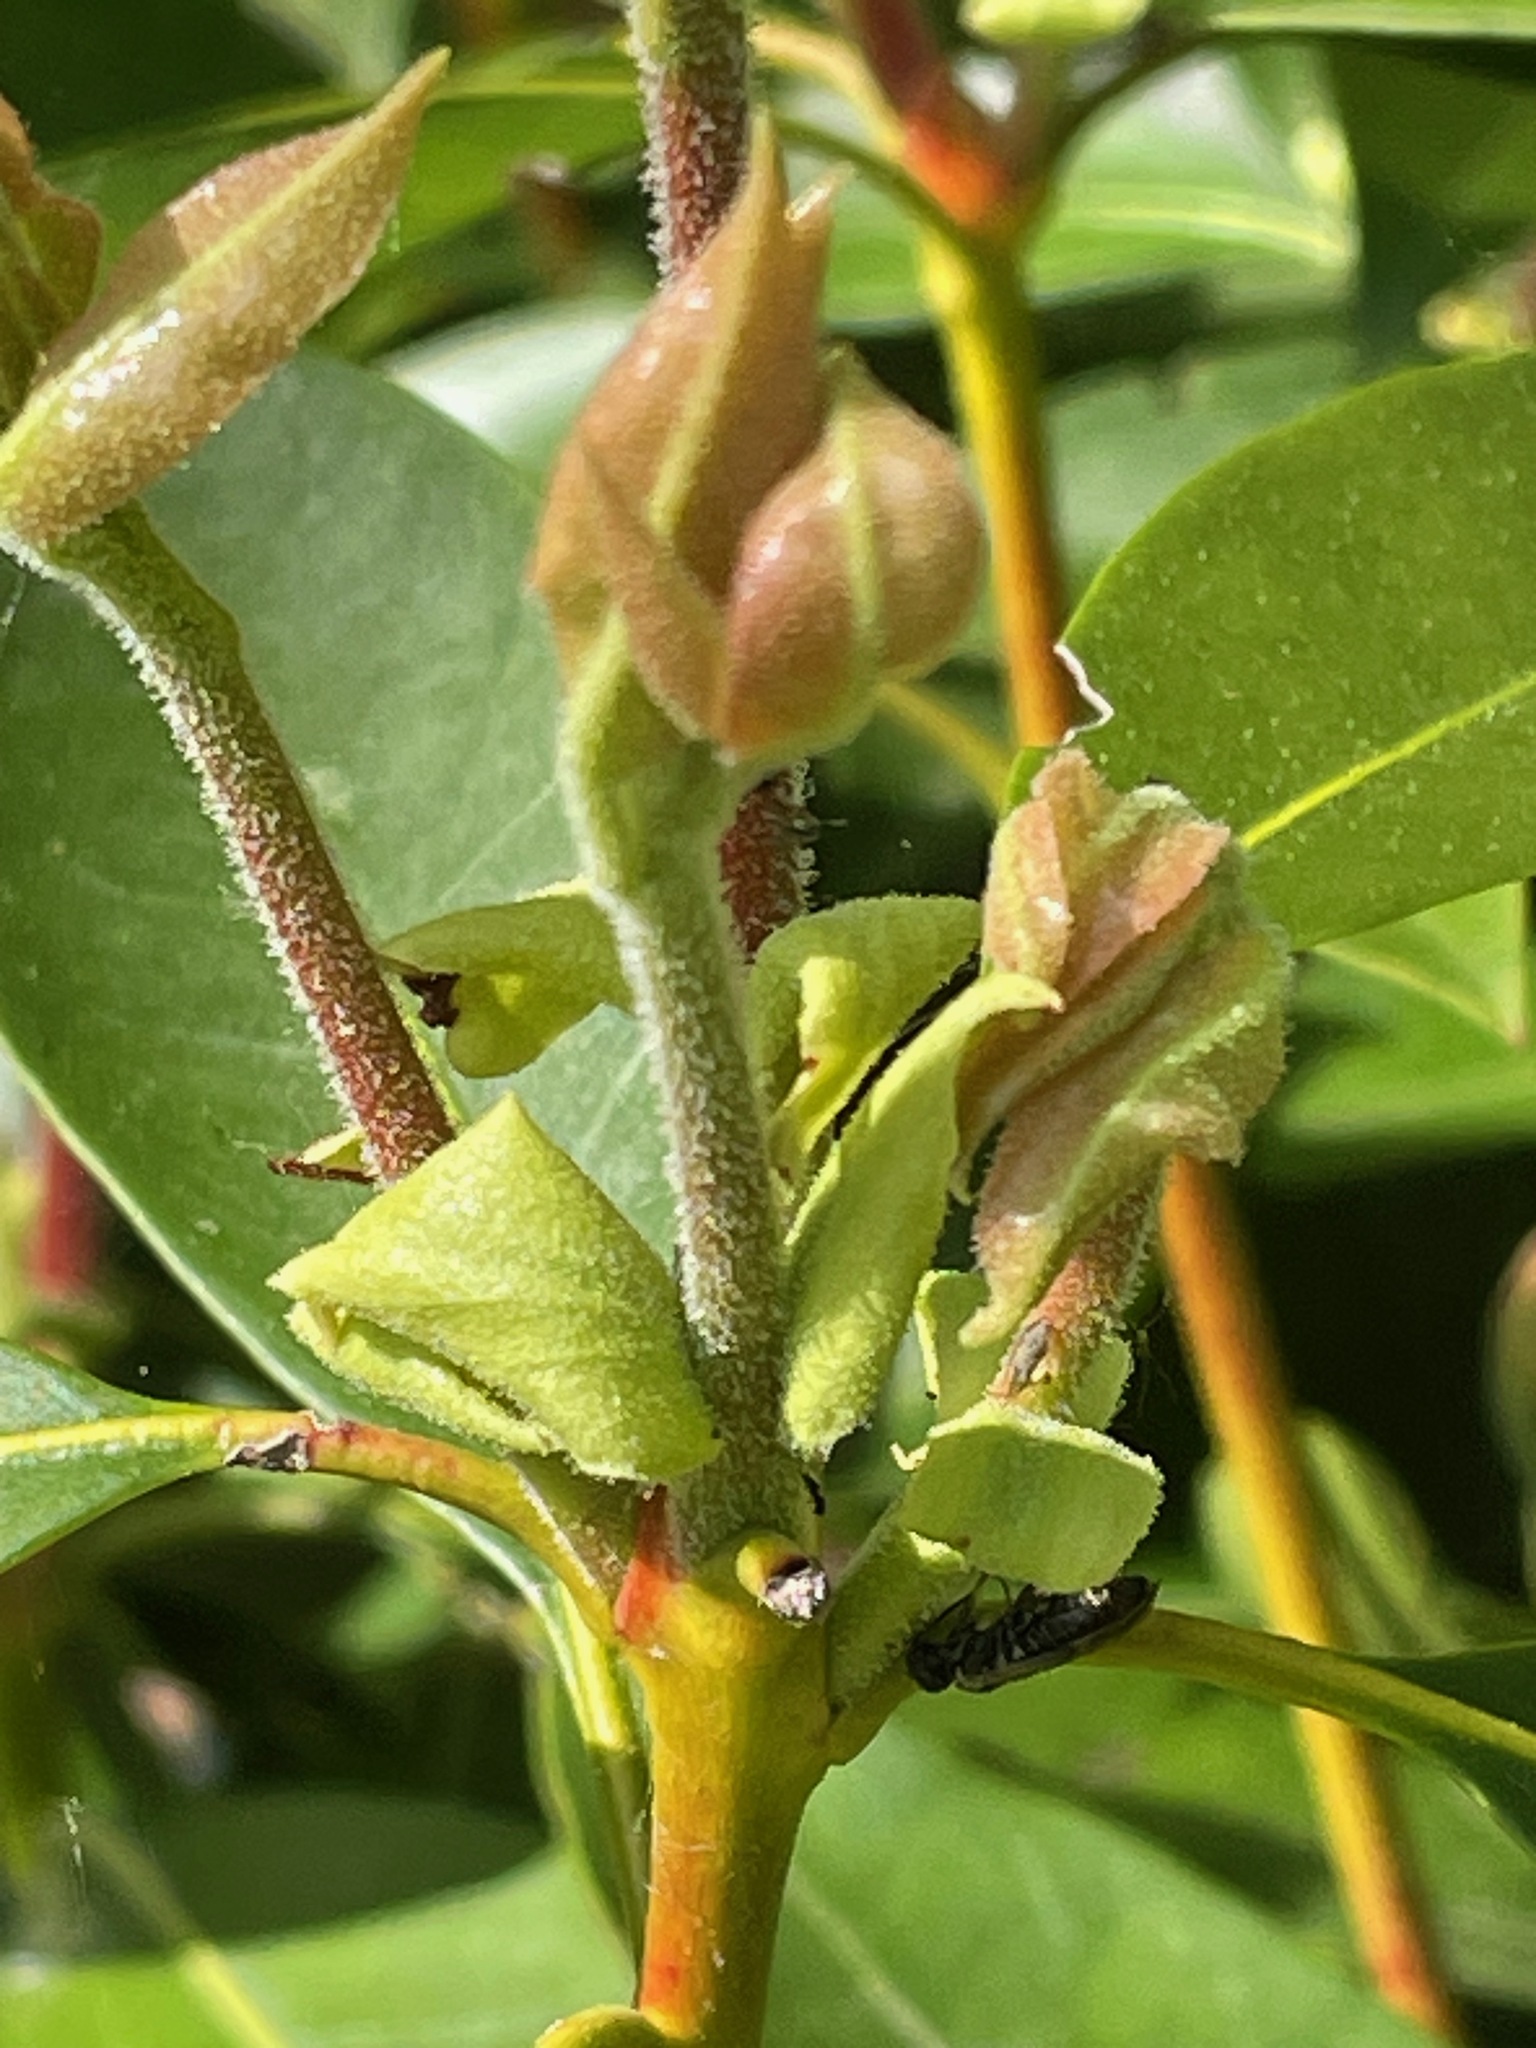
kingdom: Plantae
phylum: Tracheophyta
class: Magnoliopsida
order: Ericales
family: Ericaceae
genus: Kalmia
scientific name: Kalmia latifolia
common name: Mountain-laurel
